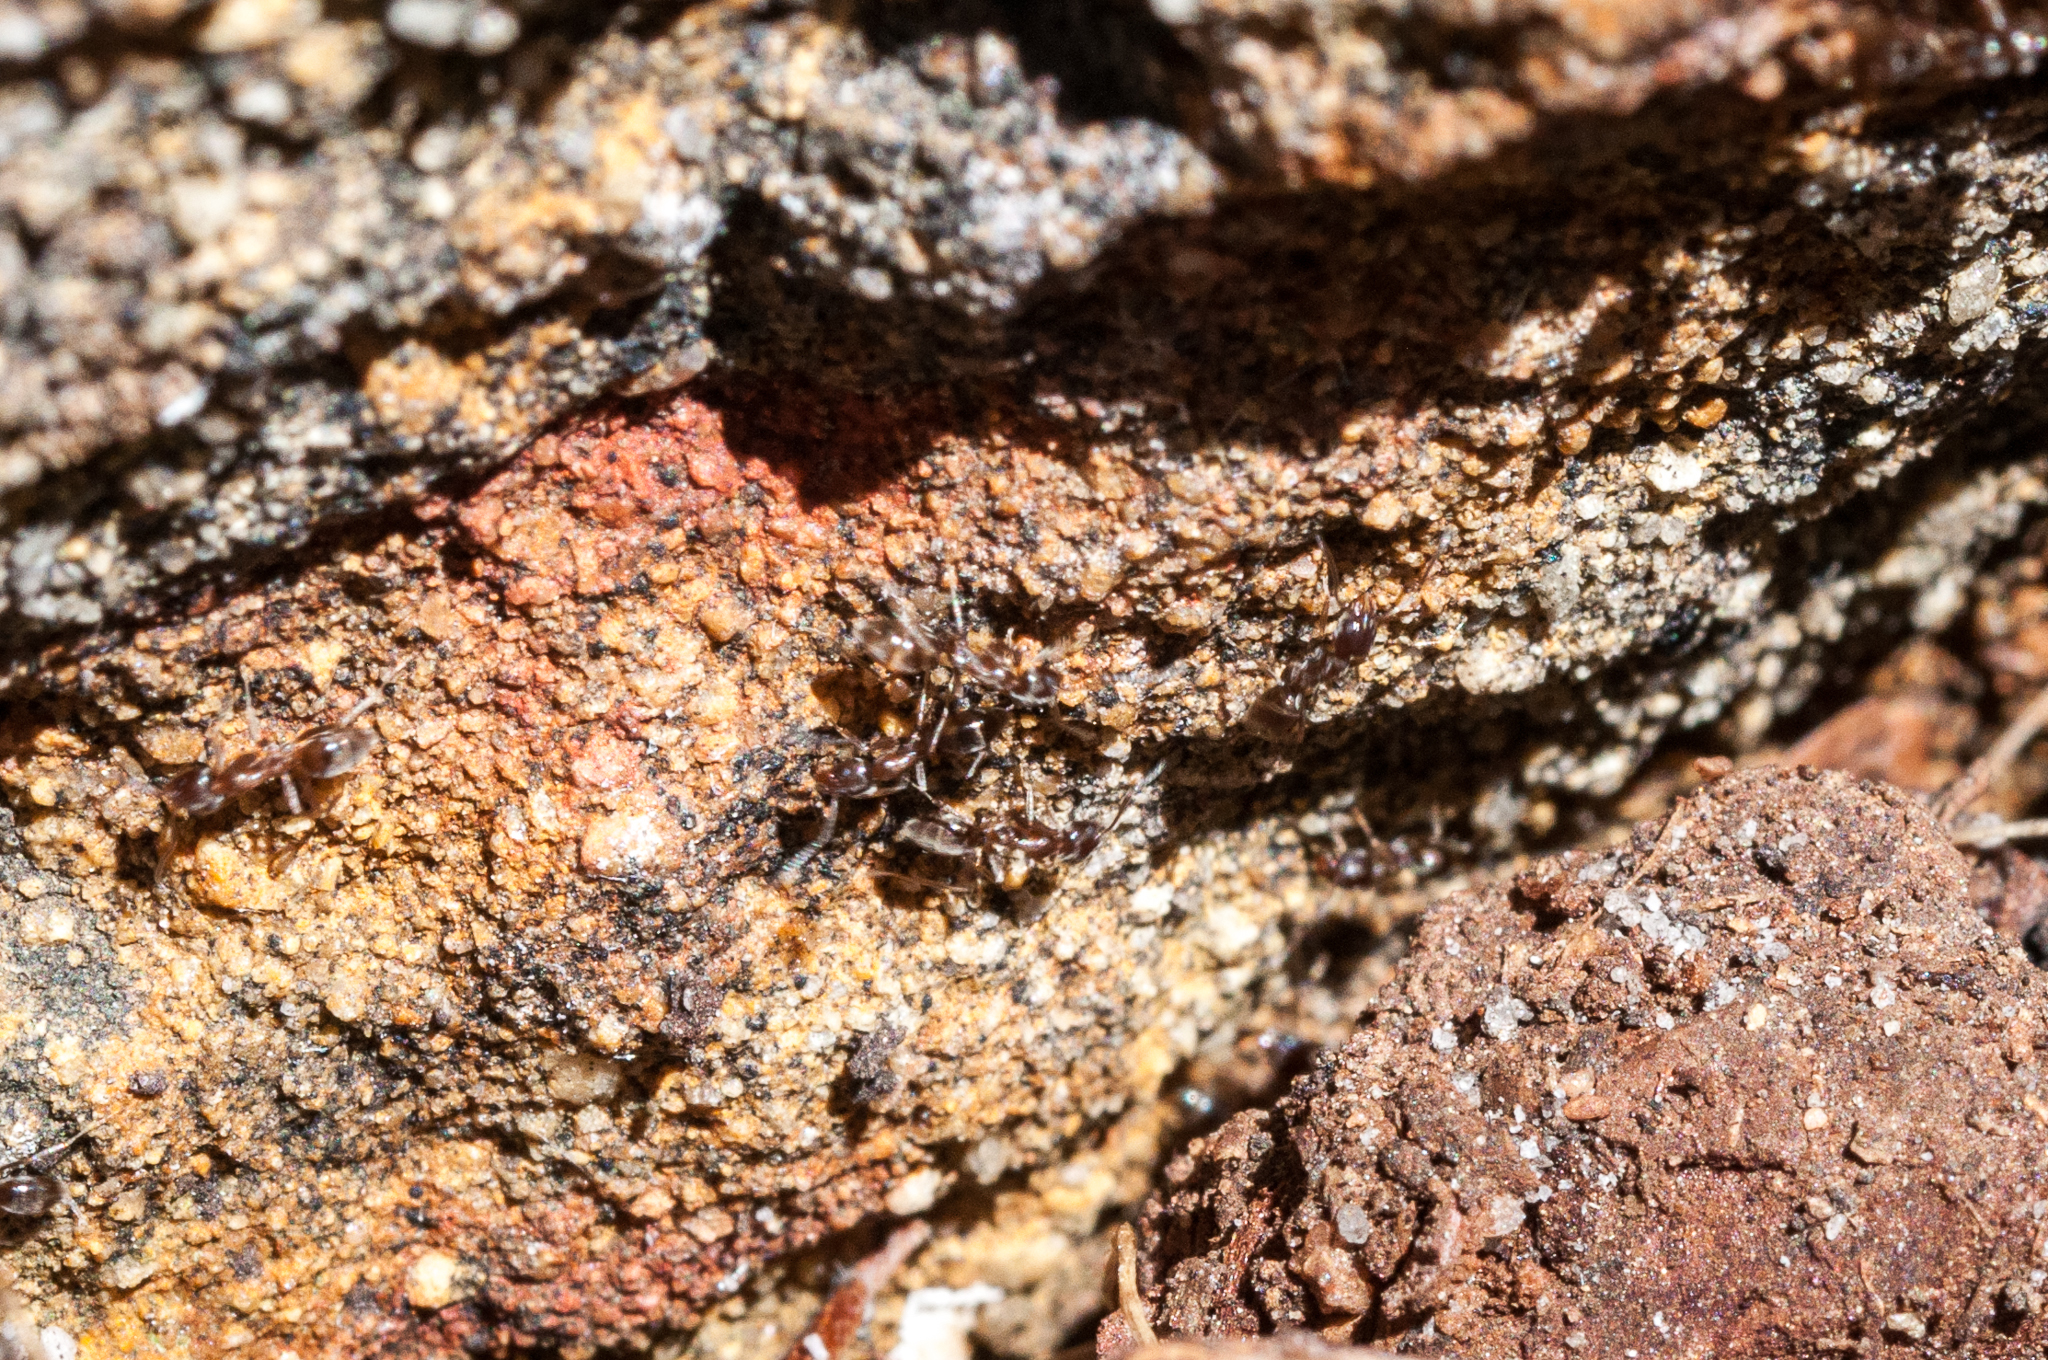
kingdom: Animalia
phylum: Arthropoda
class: Insecta
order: Hymenoptera
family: Formicidae
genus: Linepithema
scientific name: Linepithema humile
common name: Argentine ant
